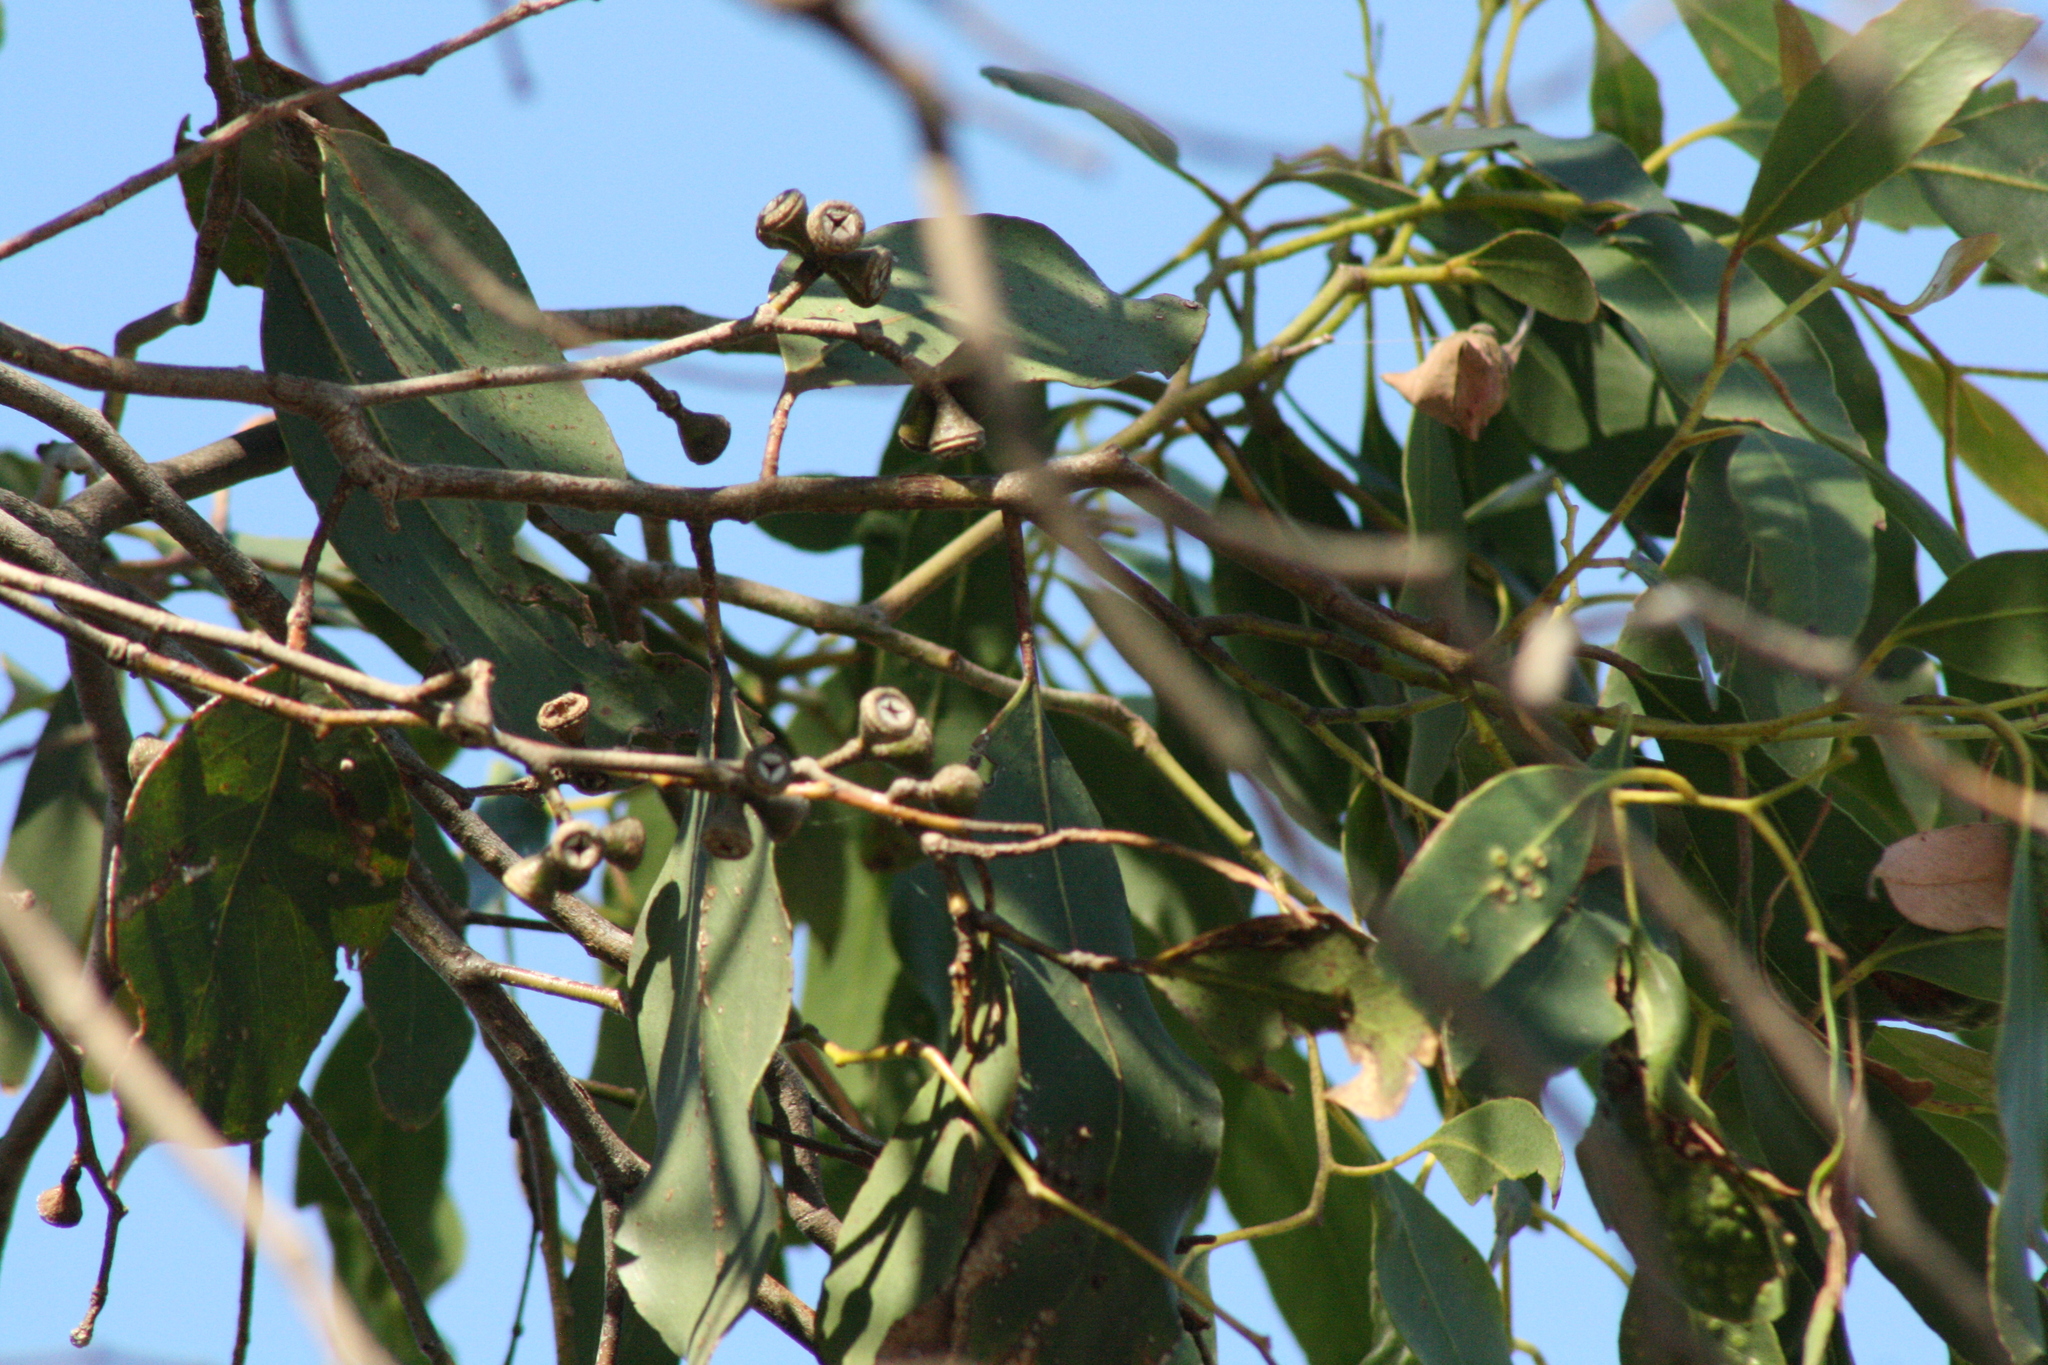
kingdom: Plantae
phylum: Tracheophyta
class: Magnoliopsida
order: Myrtales
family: Myrtaceae
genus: Eucalyptus
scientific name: Eucalyptus ovata
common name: Black-gum
